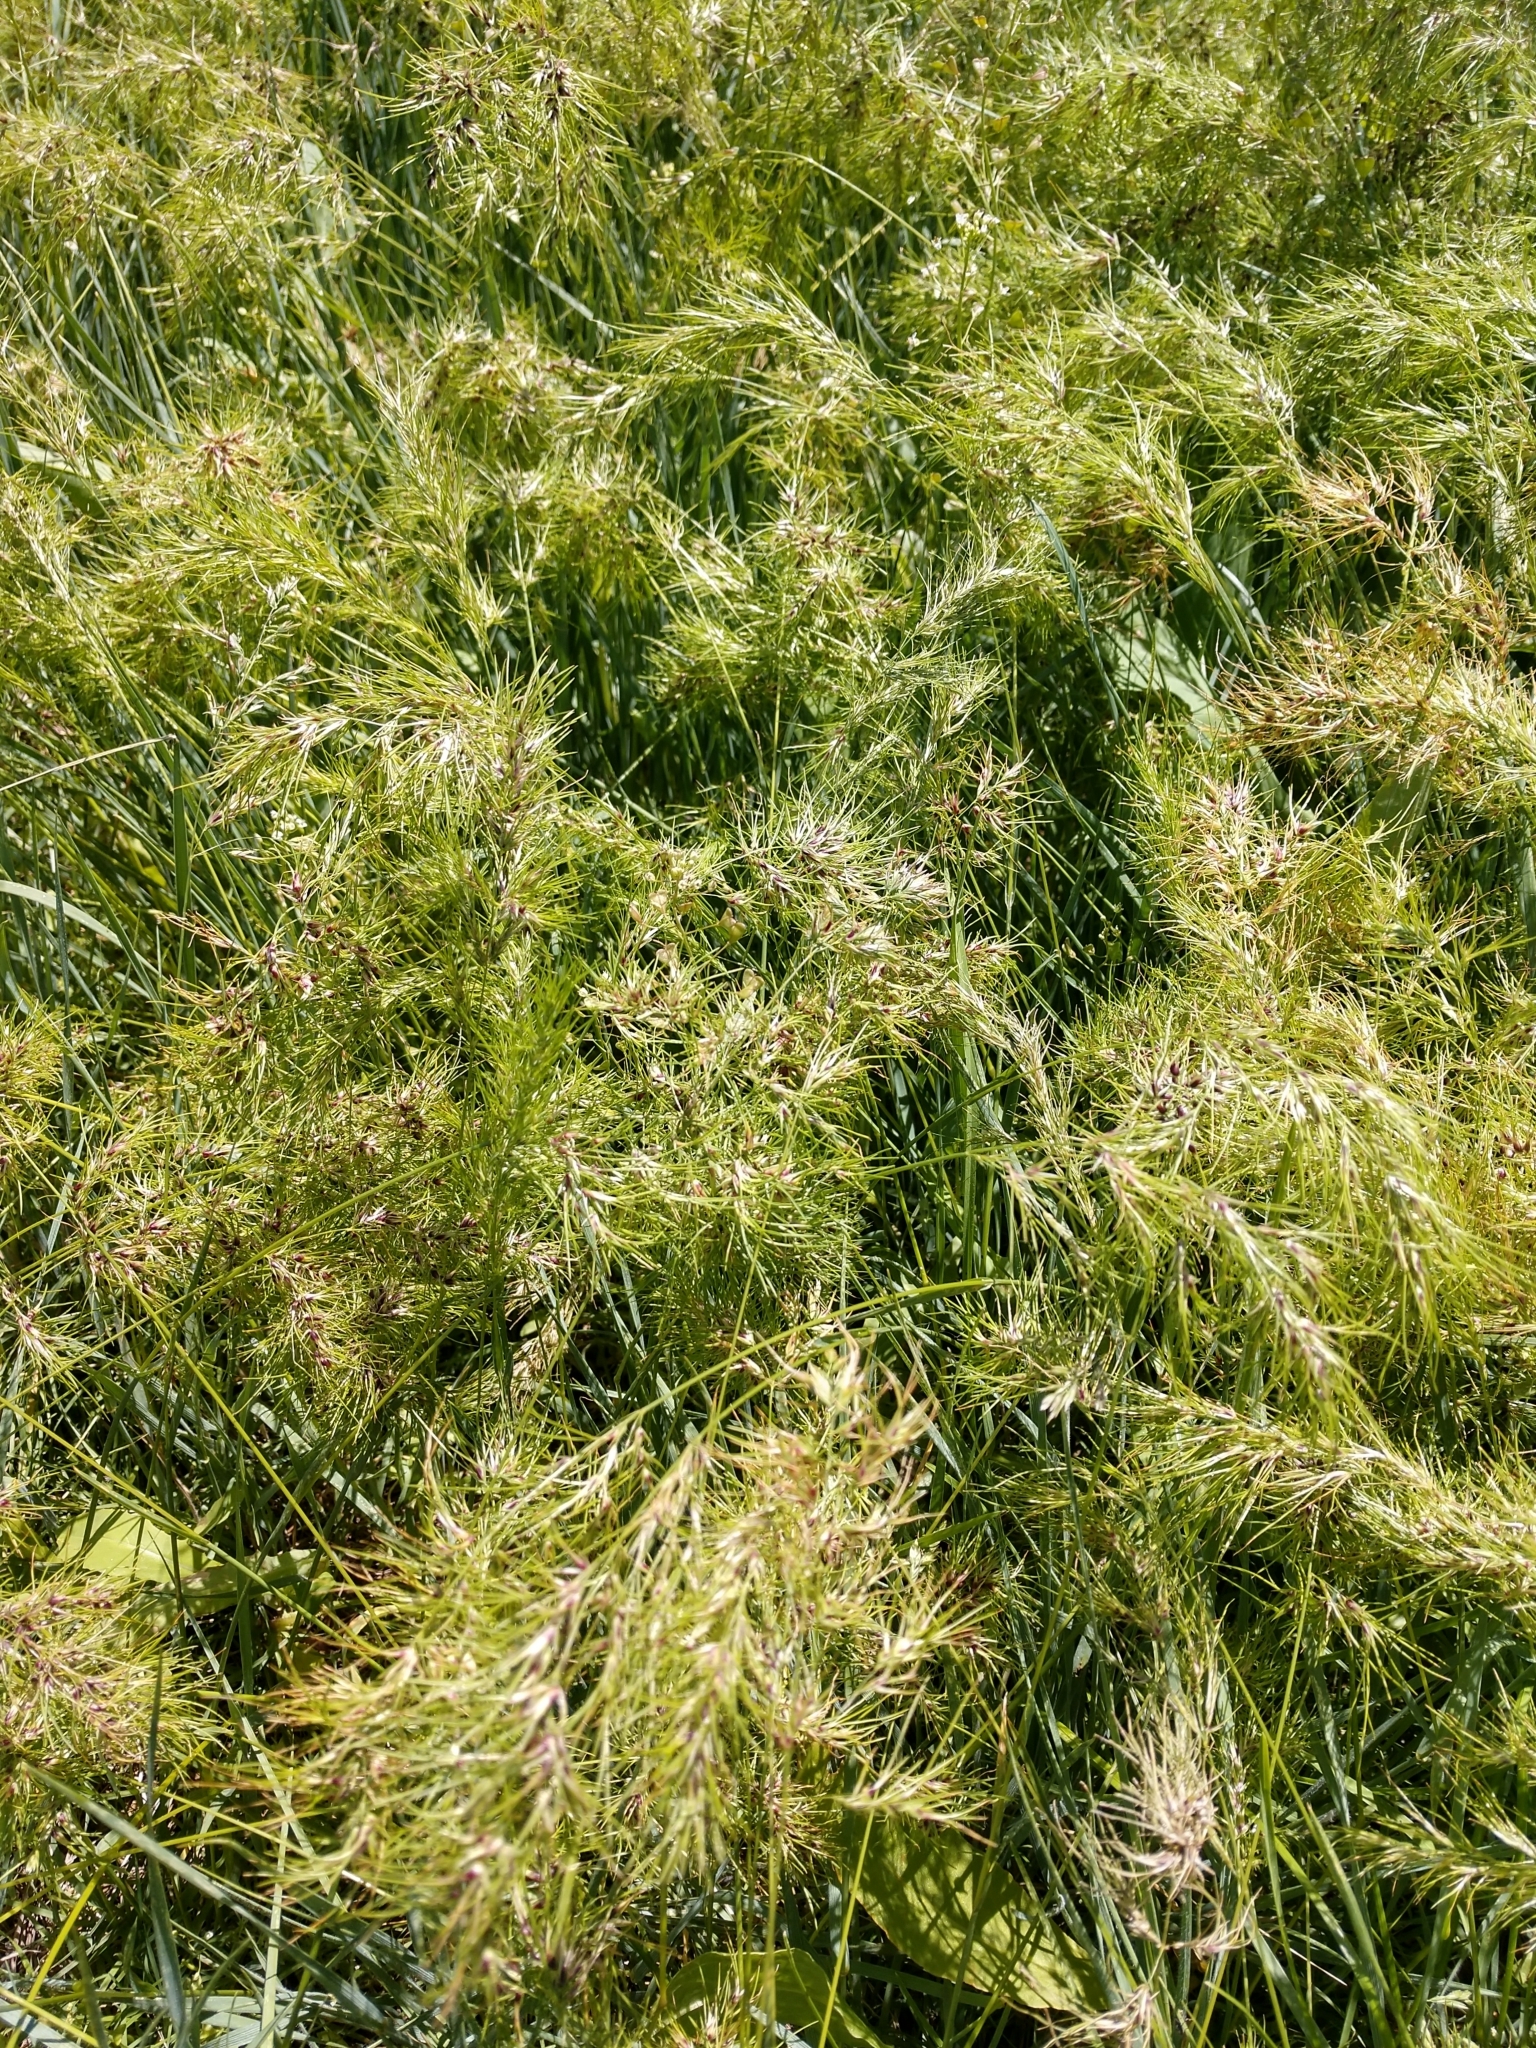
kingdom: Plantae
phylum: Tracheophyta
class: Liliopsida
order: Poales
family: Poaceae
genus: Poa
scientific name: Poa bulbosa
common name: Bulbous bluegrass
